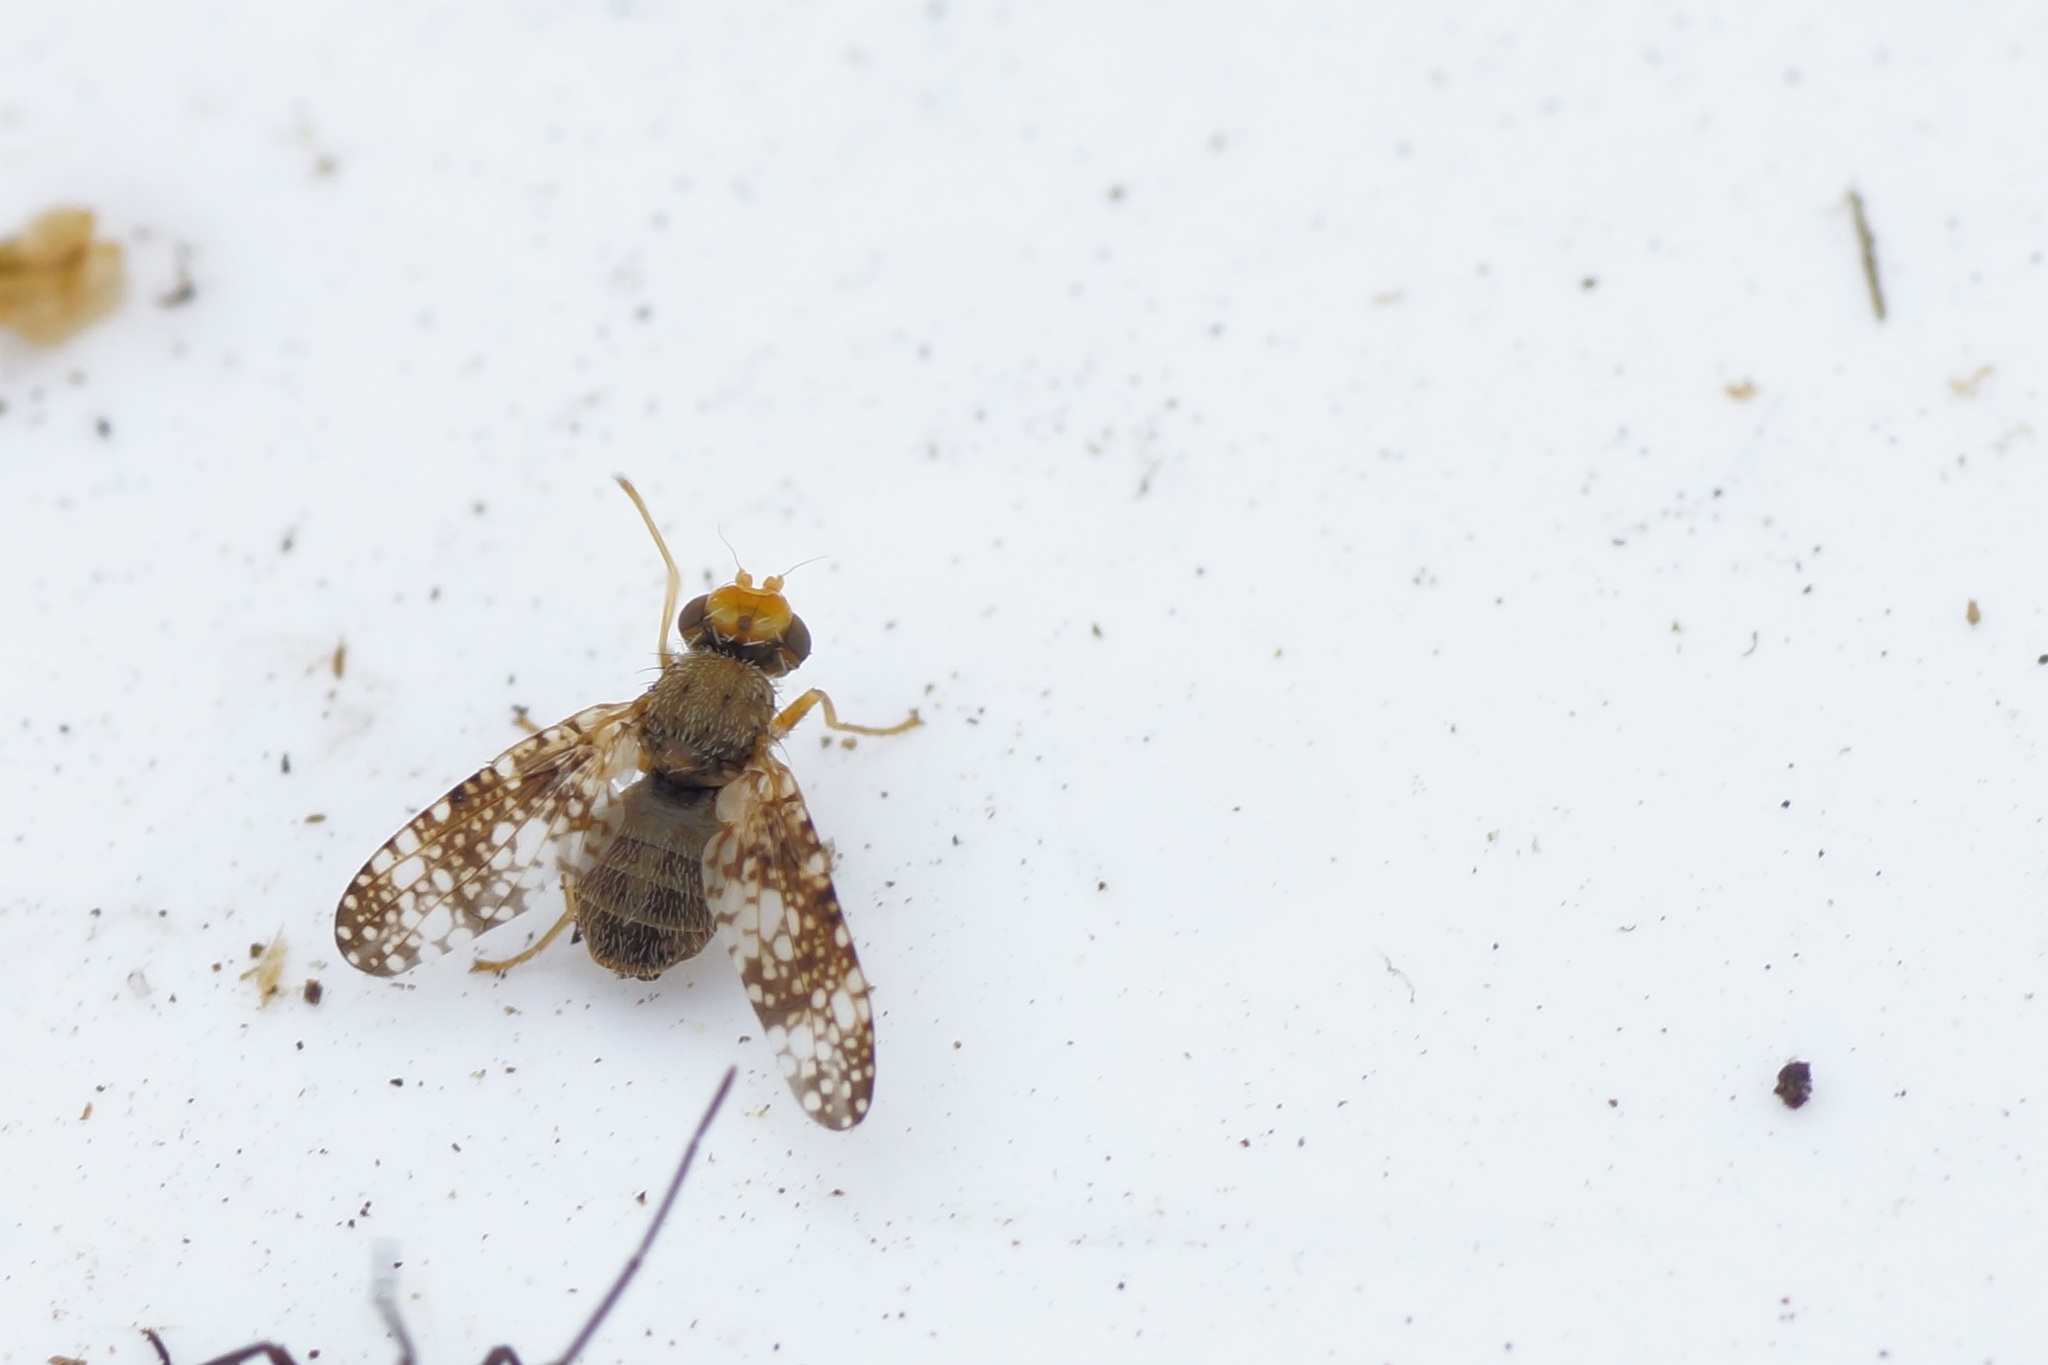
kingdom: Animalia
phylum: Arthropoda
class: Insecta
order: Diptera
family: Tephritidae
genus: Oxyna
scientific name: Oxyna parietina
